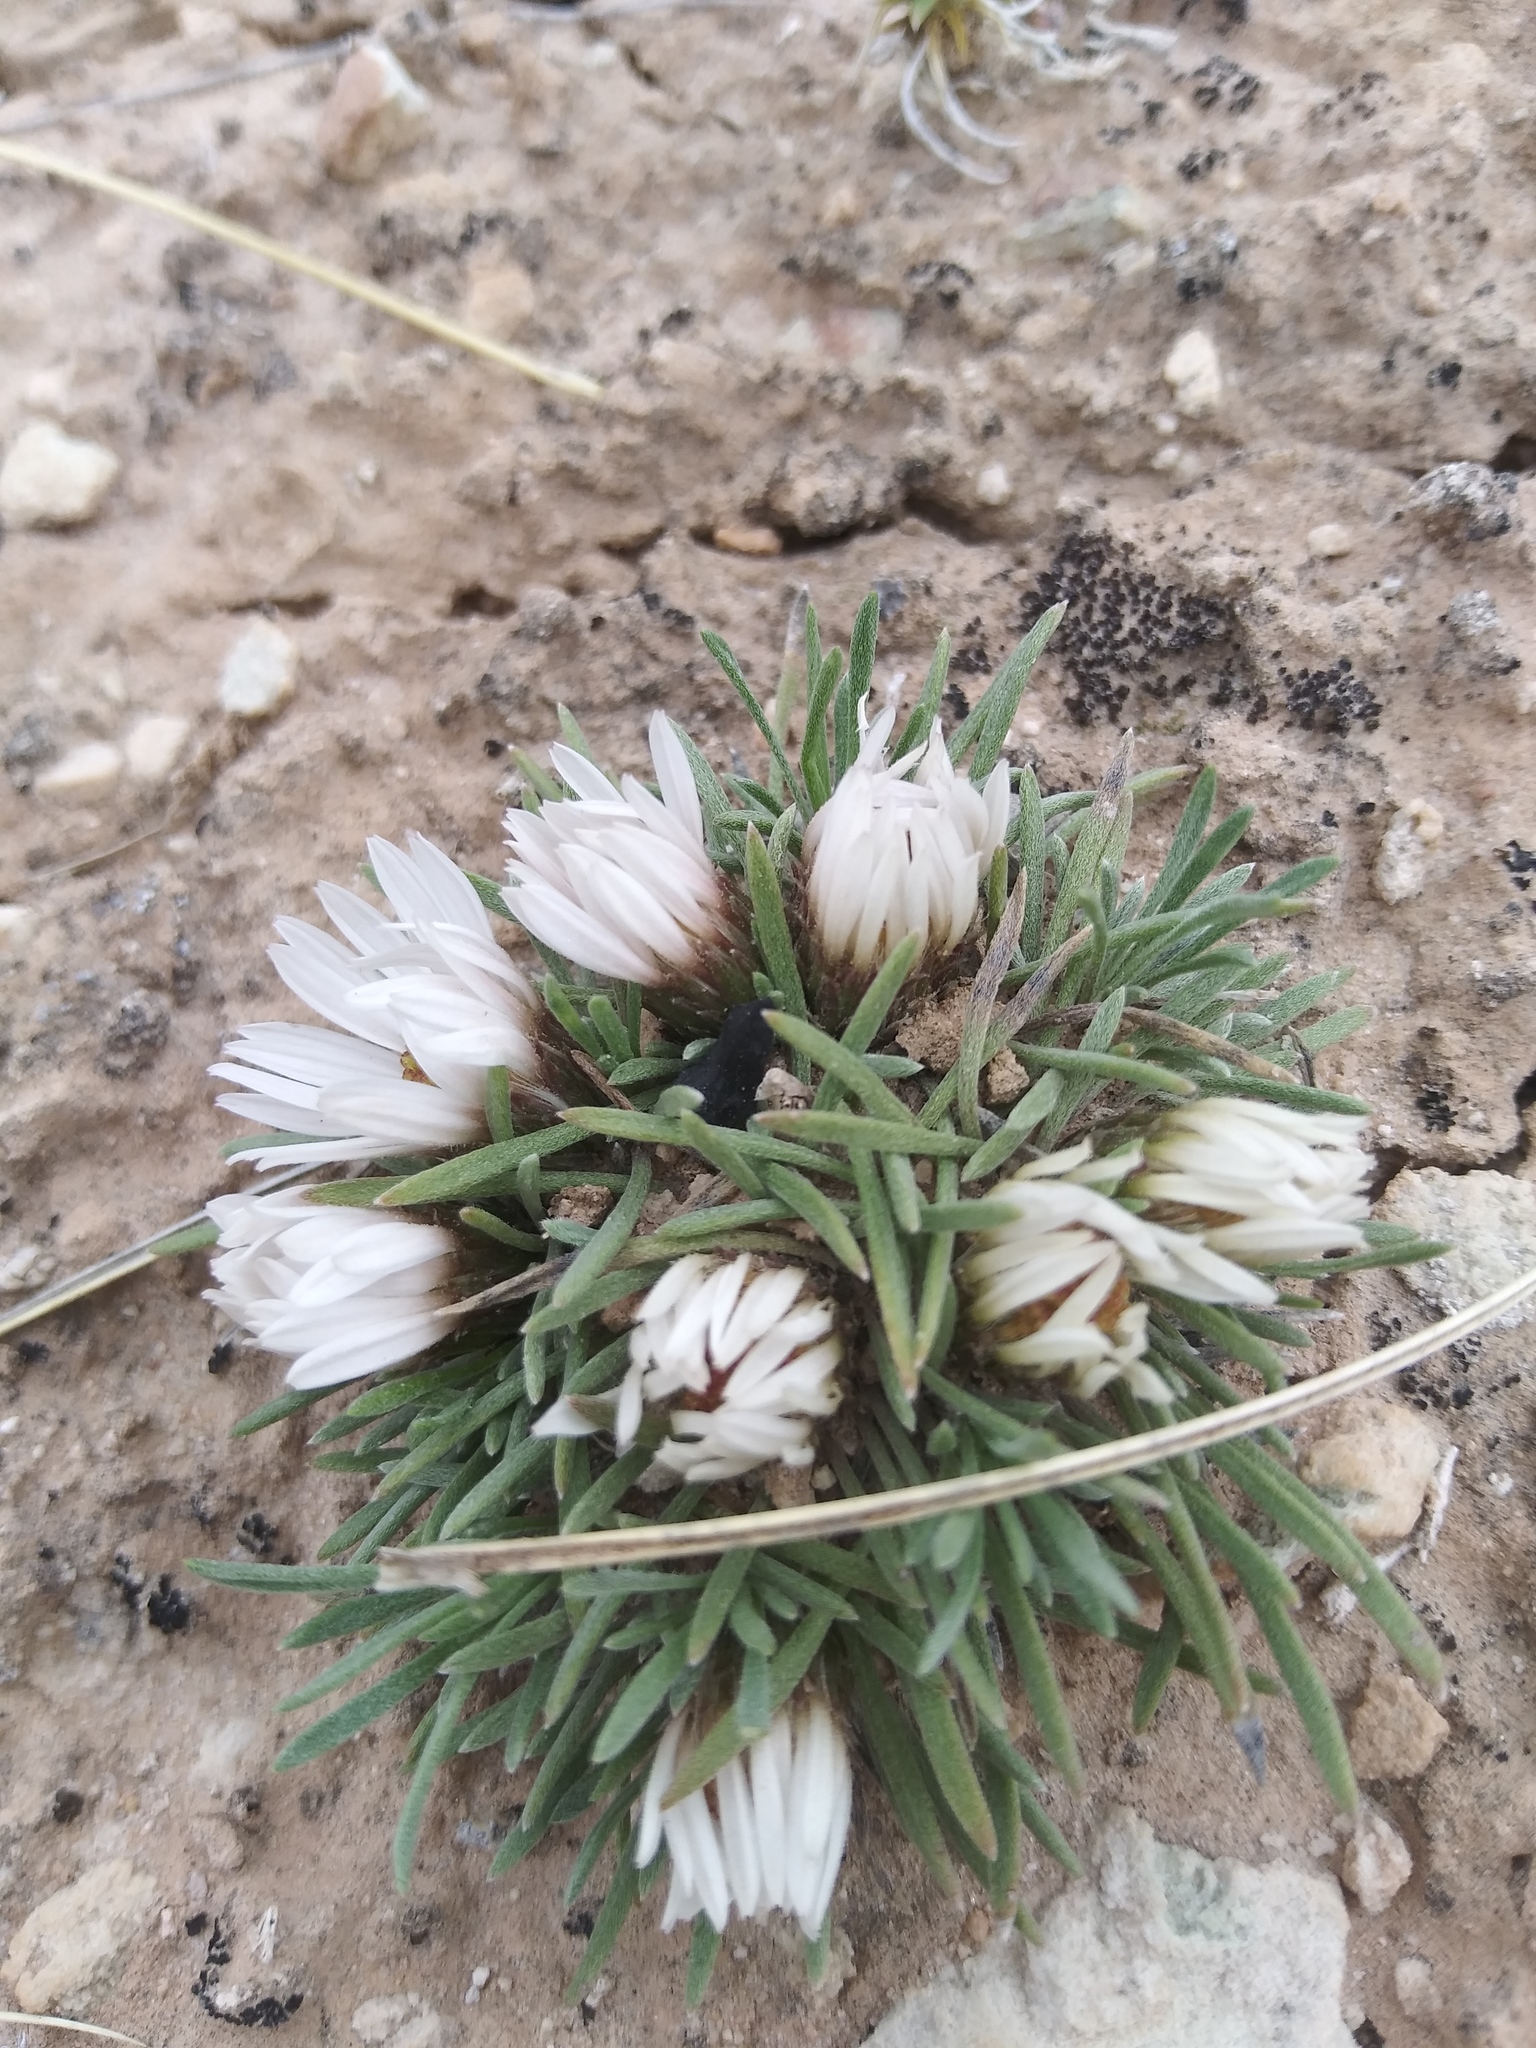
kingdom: Plantae
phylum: Tracheophyta
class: Magnoliopsida
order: Asterales
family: Asteraceae
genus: Townsendia
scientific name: Townsendia hookeri
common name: Hooker's townsend daisy
